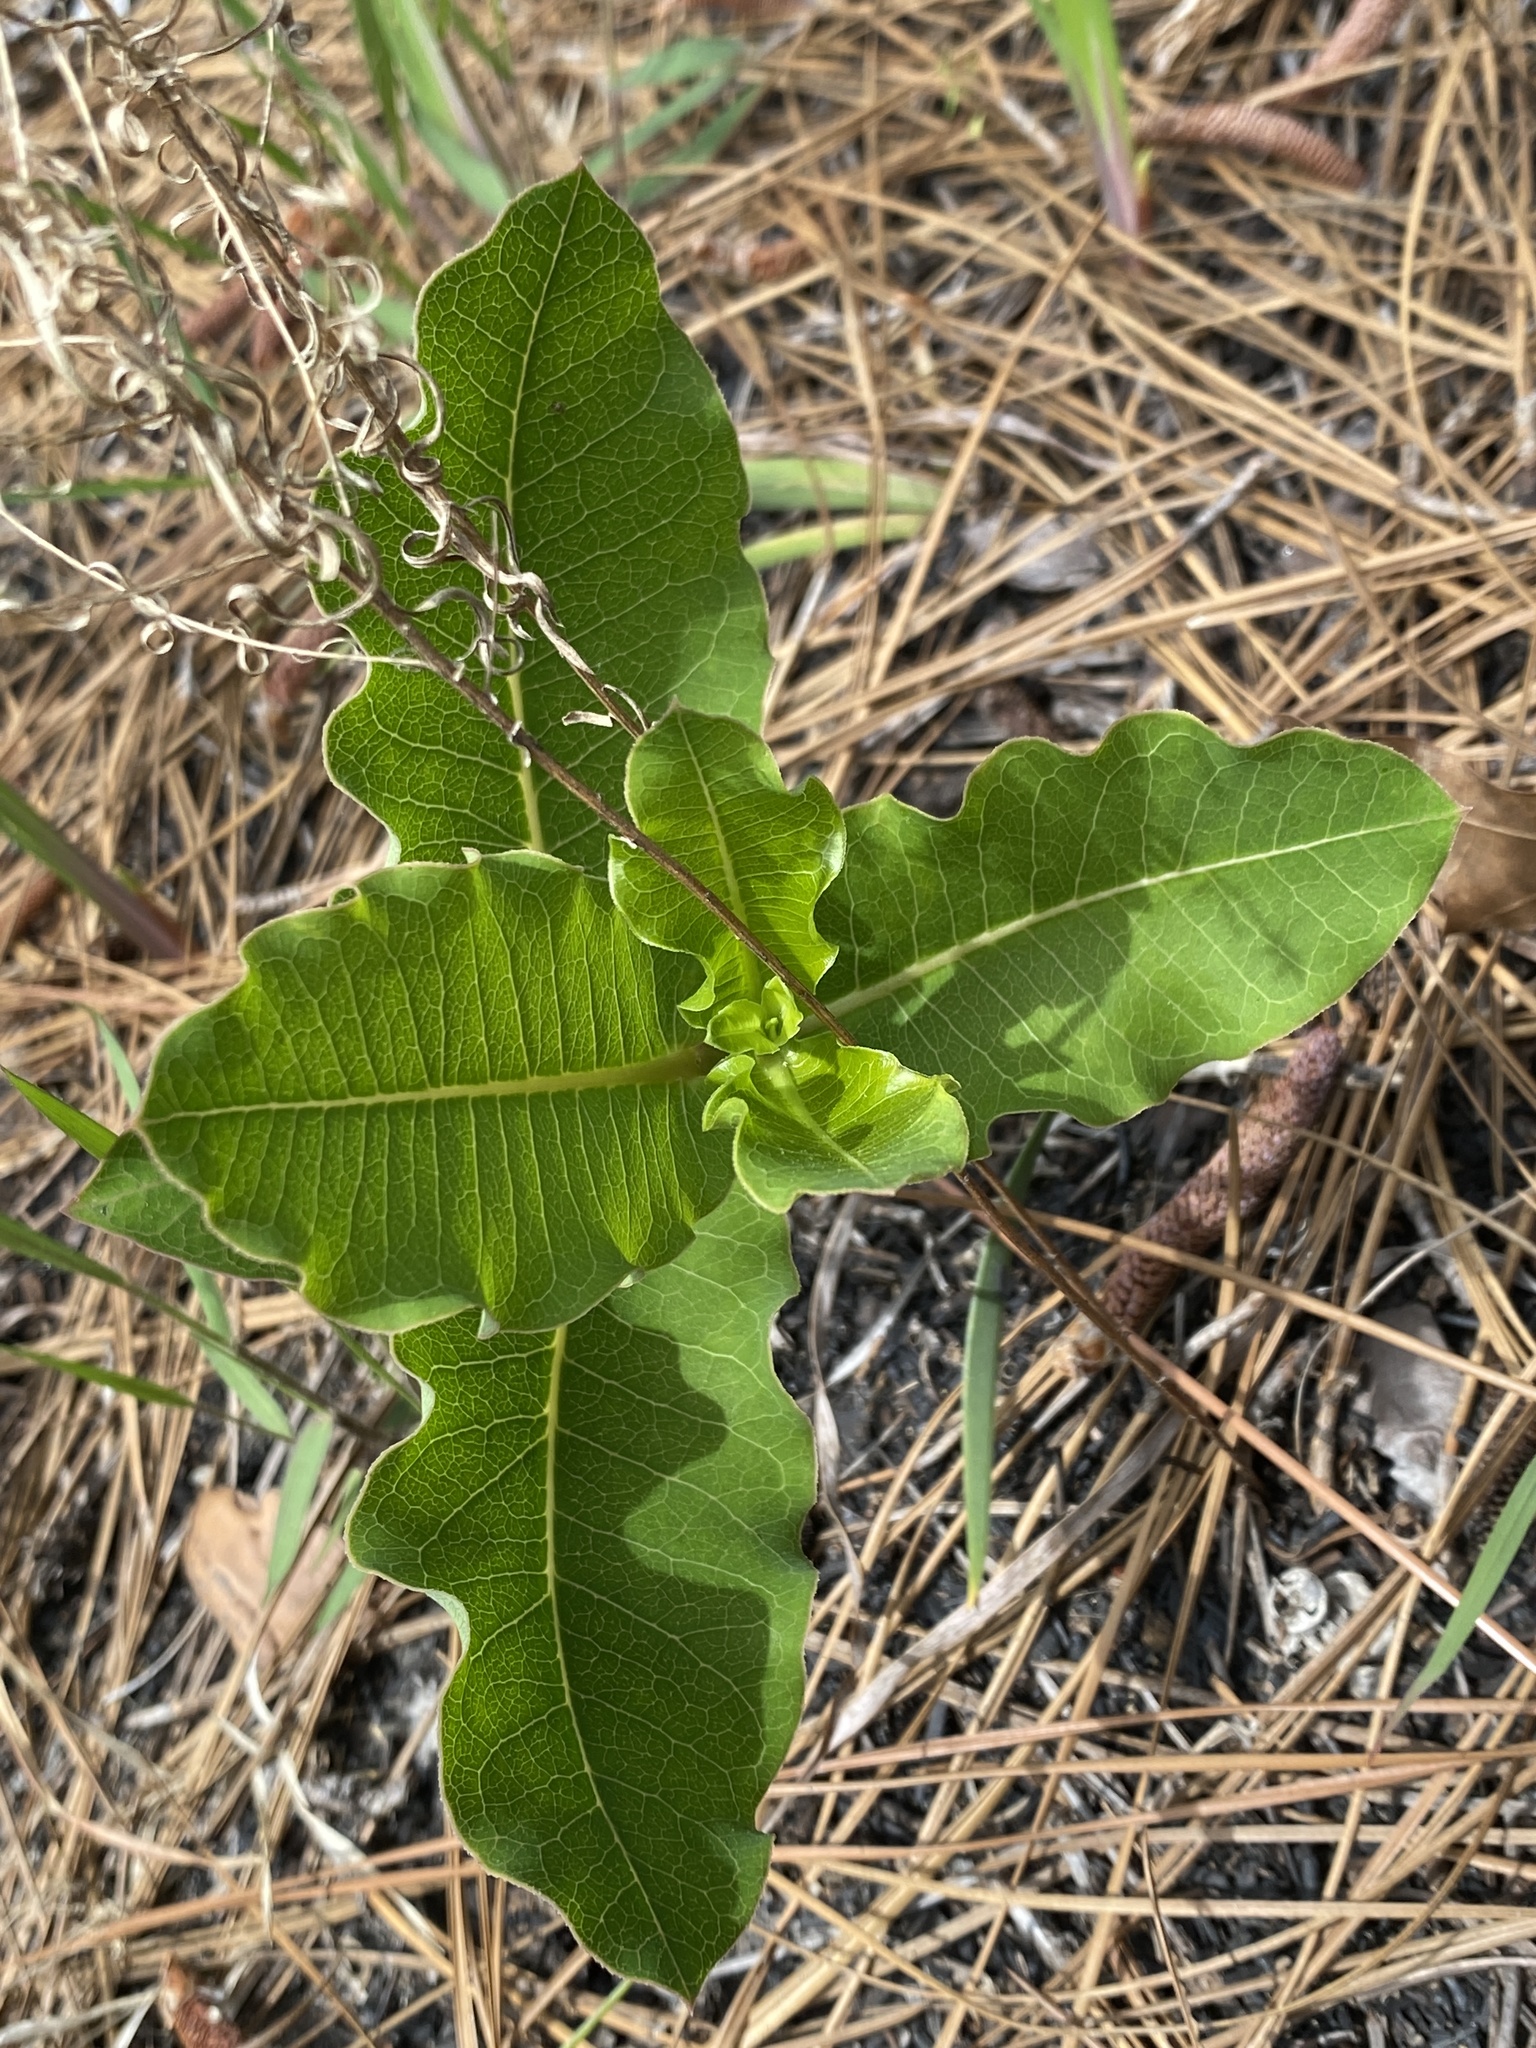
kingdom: Plantae
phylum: Tracheophyta
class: Magnoliopsida
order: Gentianales
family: Apocynaceae
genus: Asclepias
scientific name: Asclepias amplexicaulis
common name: Blunt-leaf milkweed
